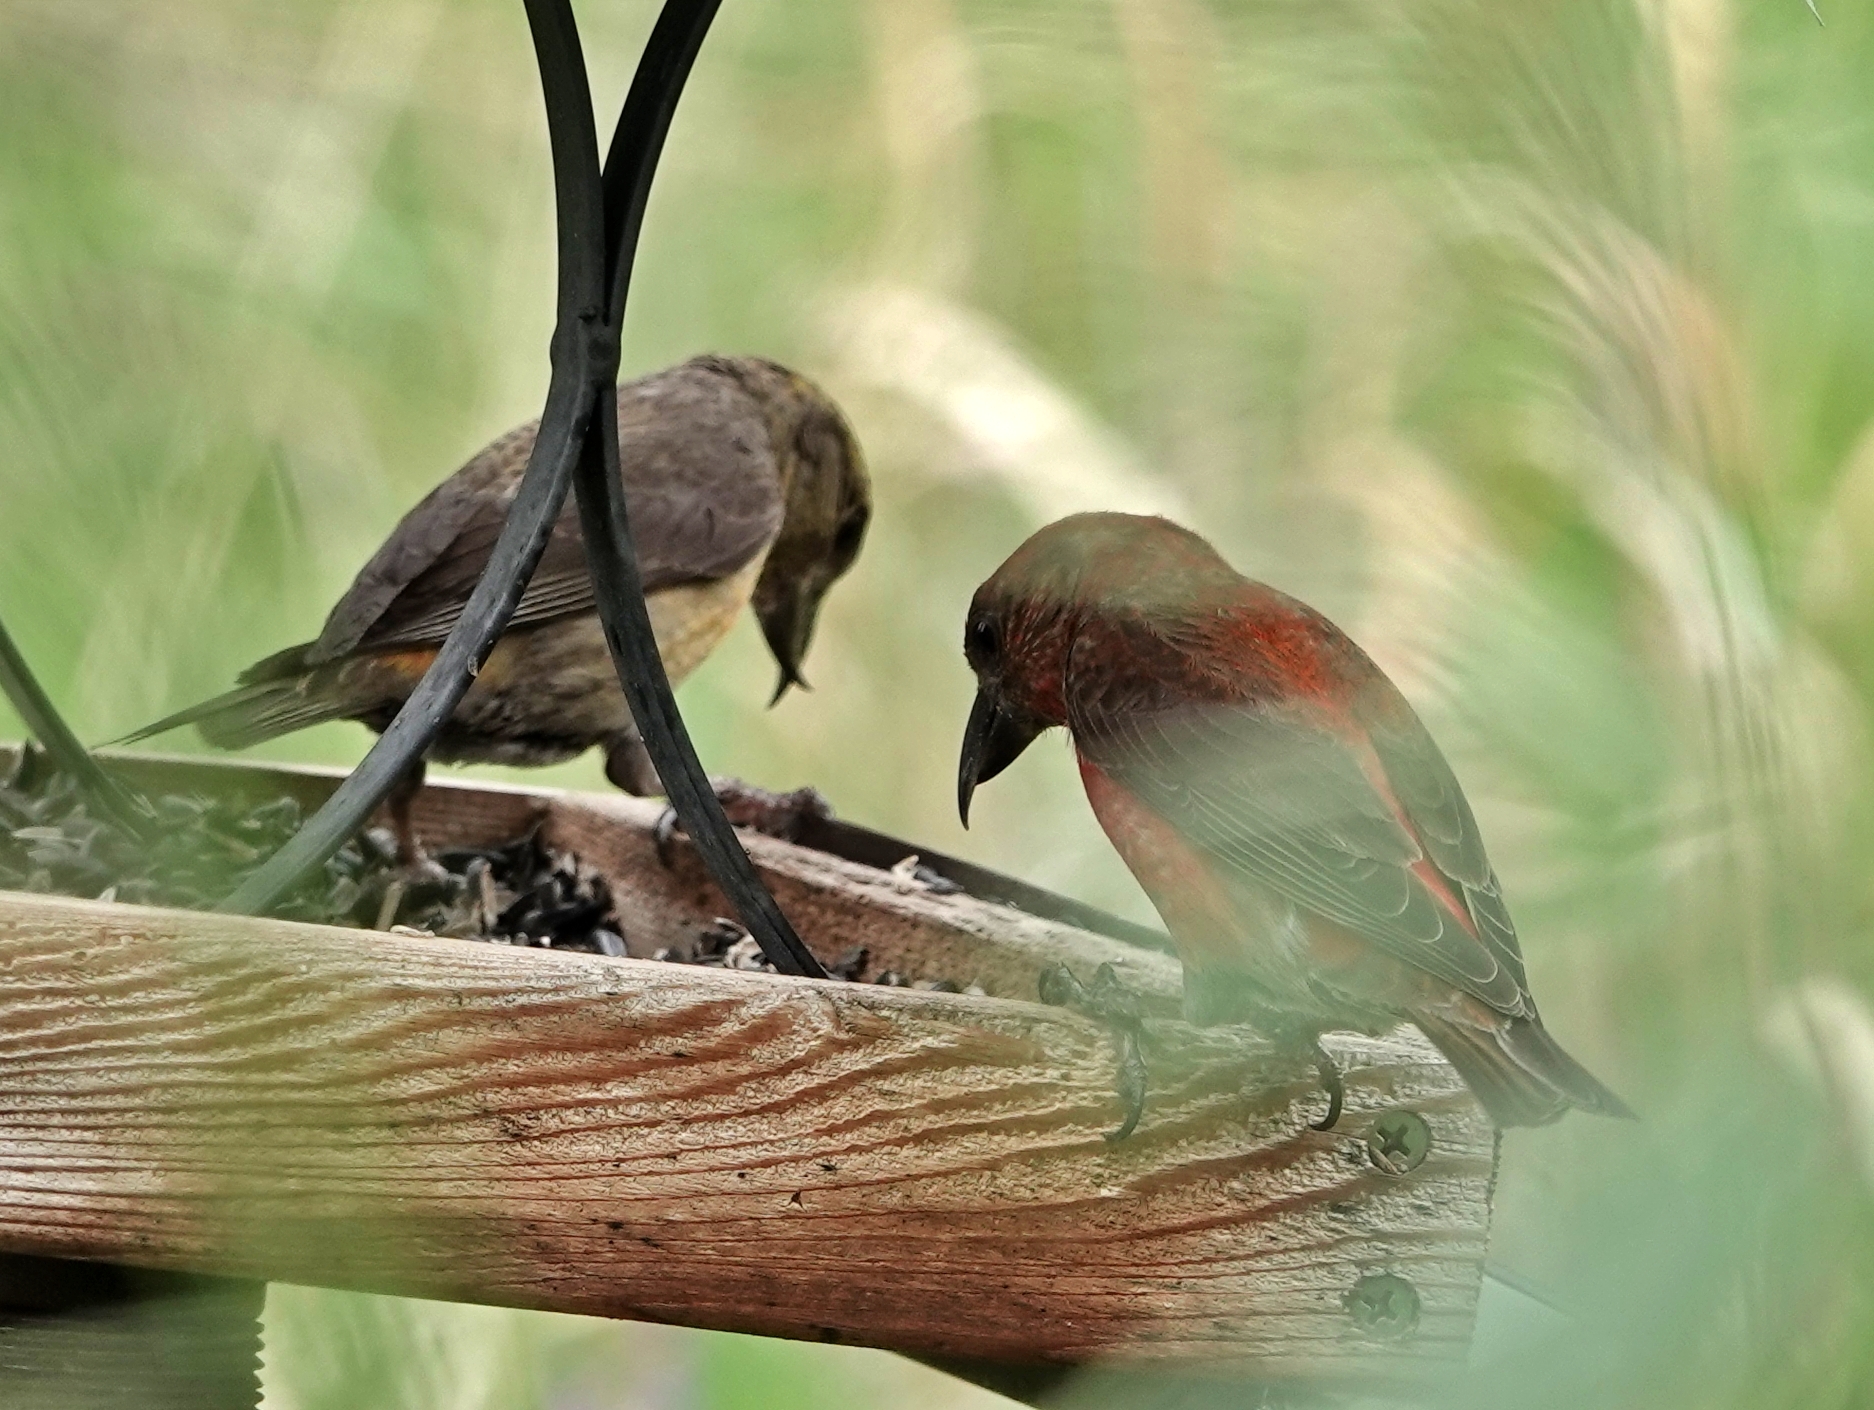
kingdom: Animalia
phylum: Chordata
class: Aves
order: Passeriformes
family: Fringillidae
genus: Loxia
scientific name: Loxia curvirostra
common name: Red crossbill
